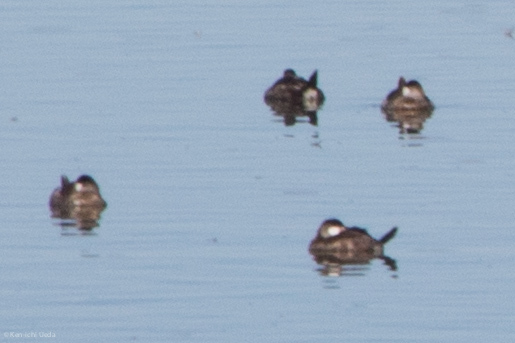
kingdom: Animalia
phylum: Chordata
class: Aves
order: Anseriformes
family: Anatidae
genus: Oxyura
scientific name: Oxyura jamaicensis
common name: Ruddy duck
